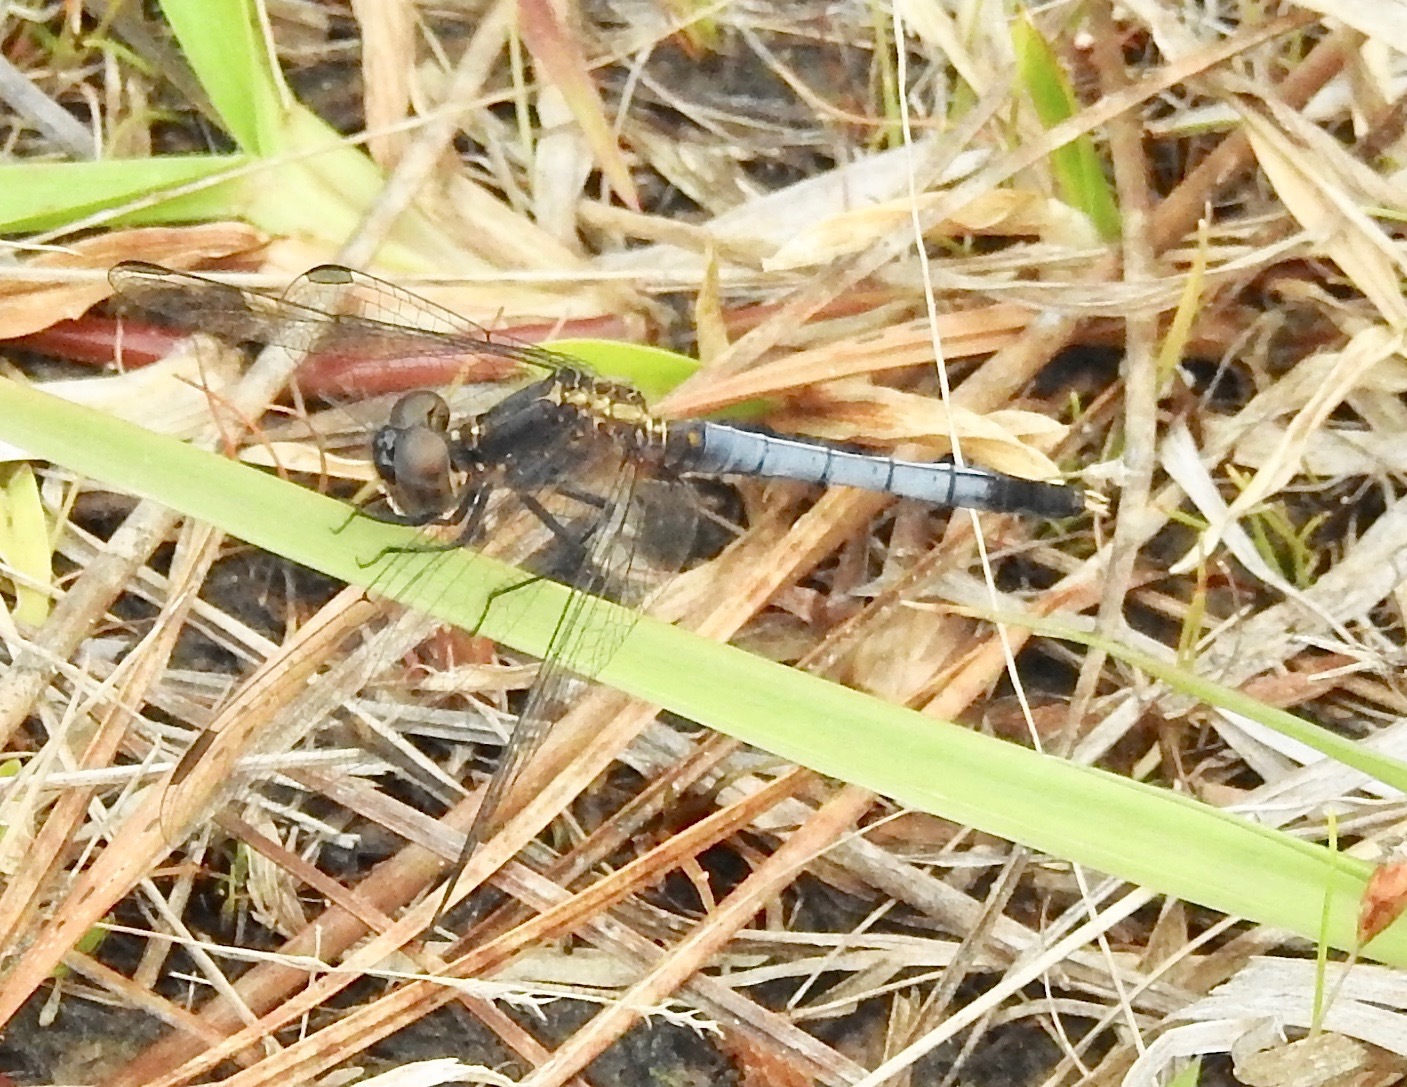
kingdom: Animalia
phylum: Arthropoda
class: Insecta
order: Odonata
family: Libellulidae
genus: Erythrodiplax
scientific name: Erythrodiplax minuscula
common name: Little blue dragonlet
